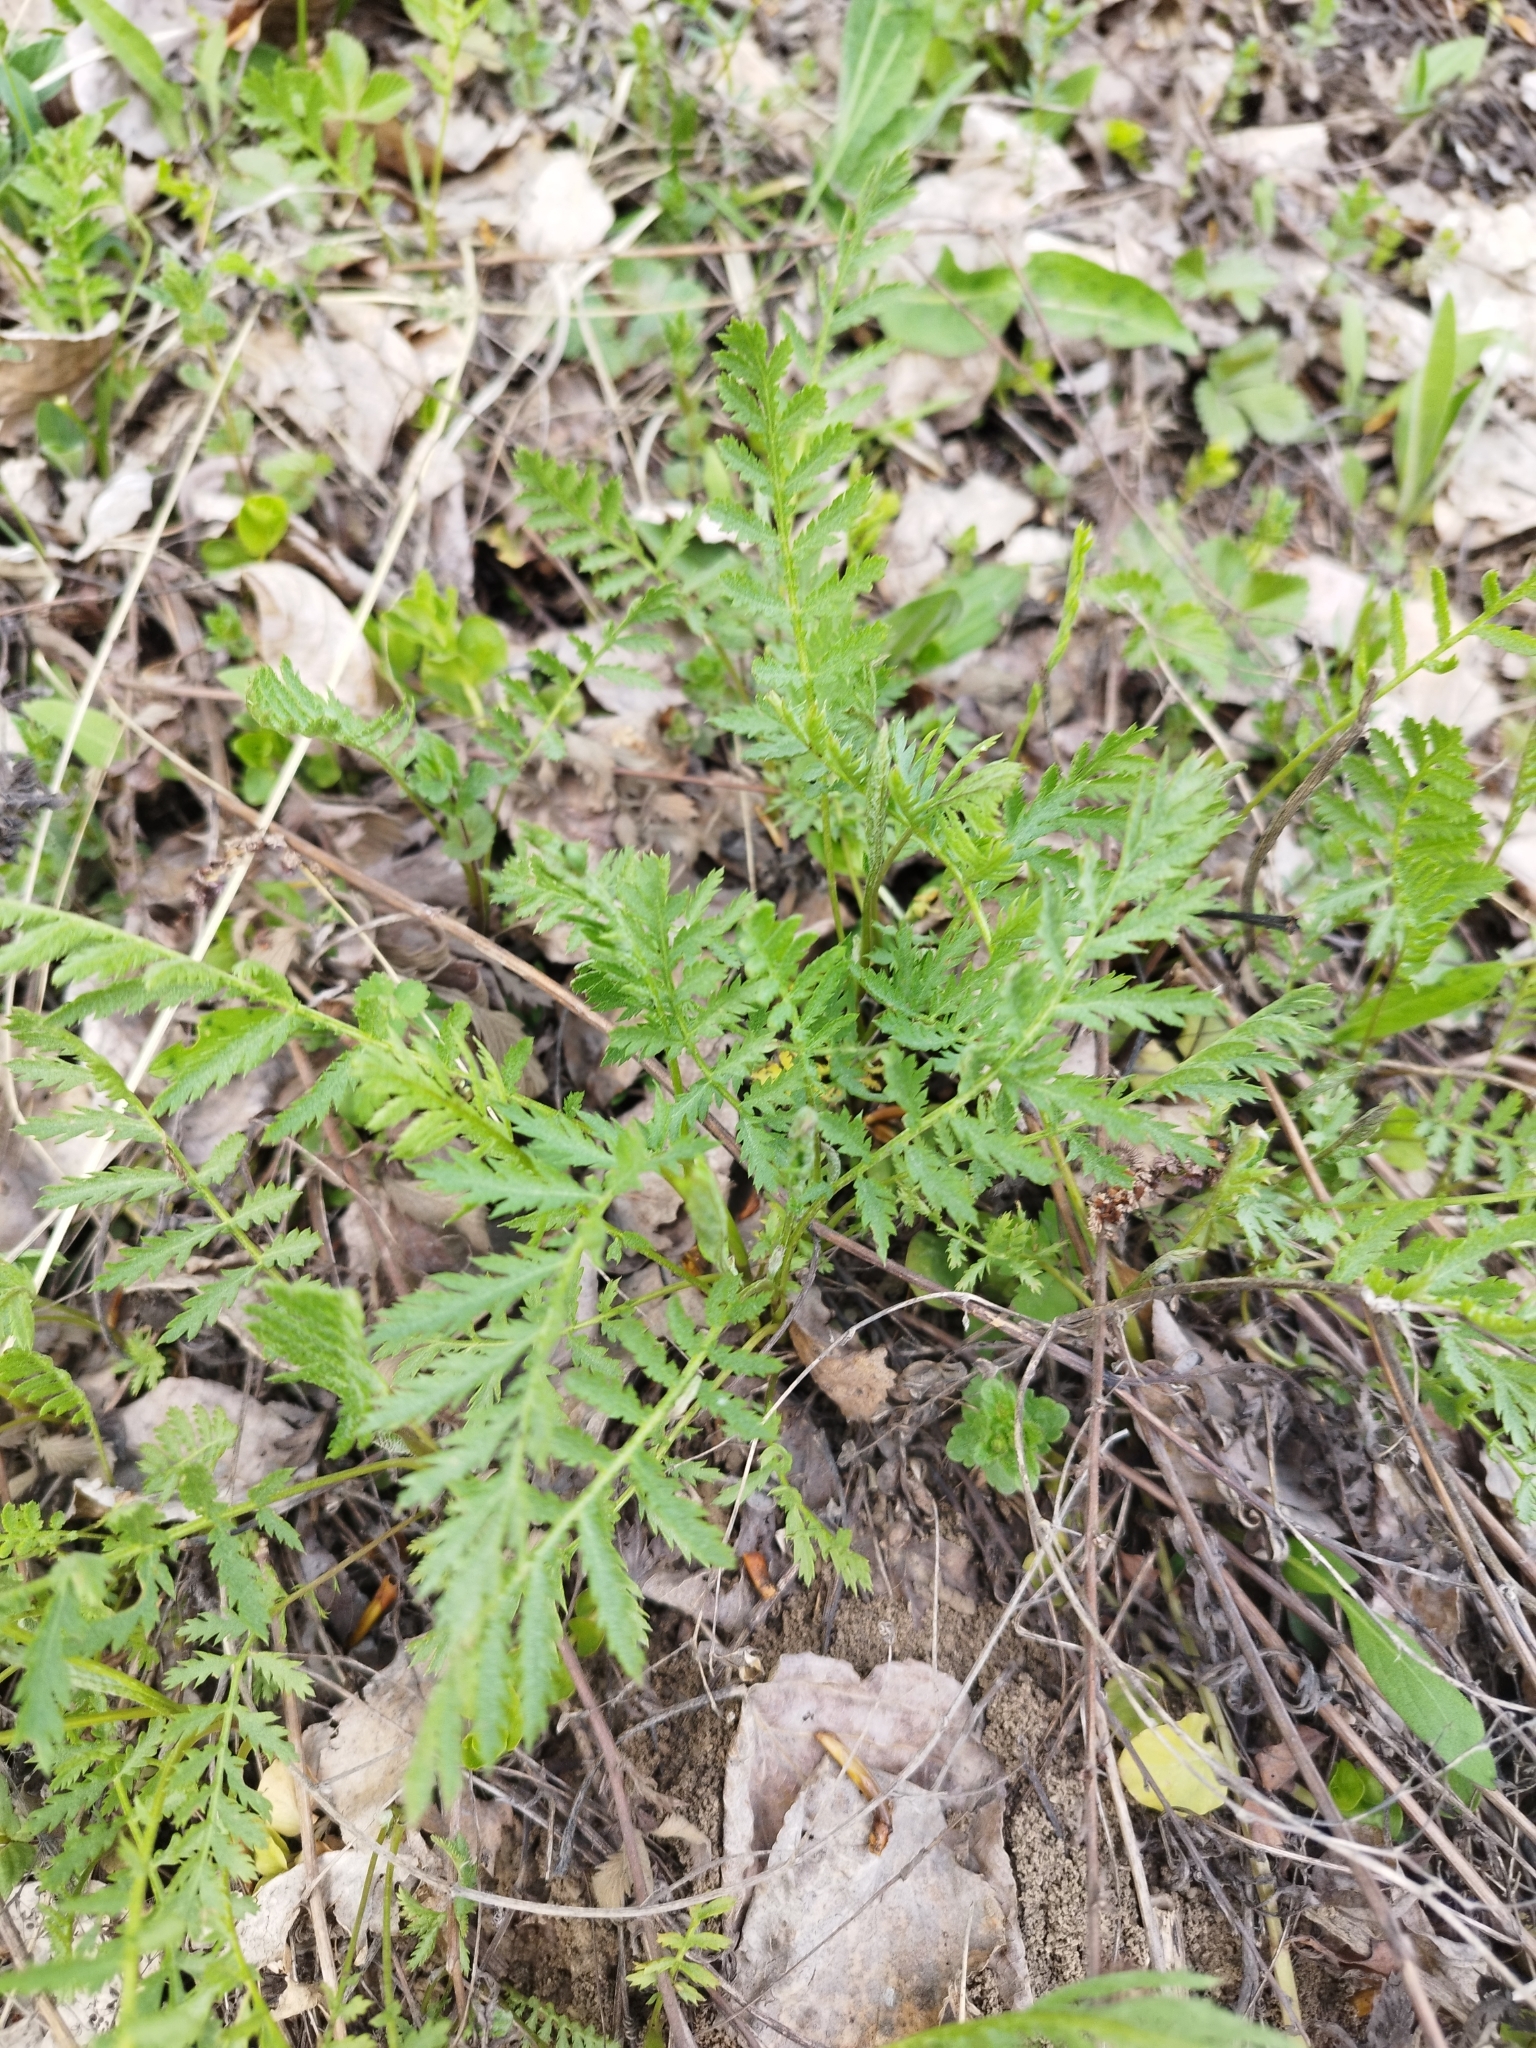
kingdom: Plantae
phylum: Tracheophyta
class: Magnoliopsida
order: Asterales
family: Asteraceae
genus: Tanacetum
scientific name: Tanacetum vulgare
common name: Common tansy
